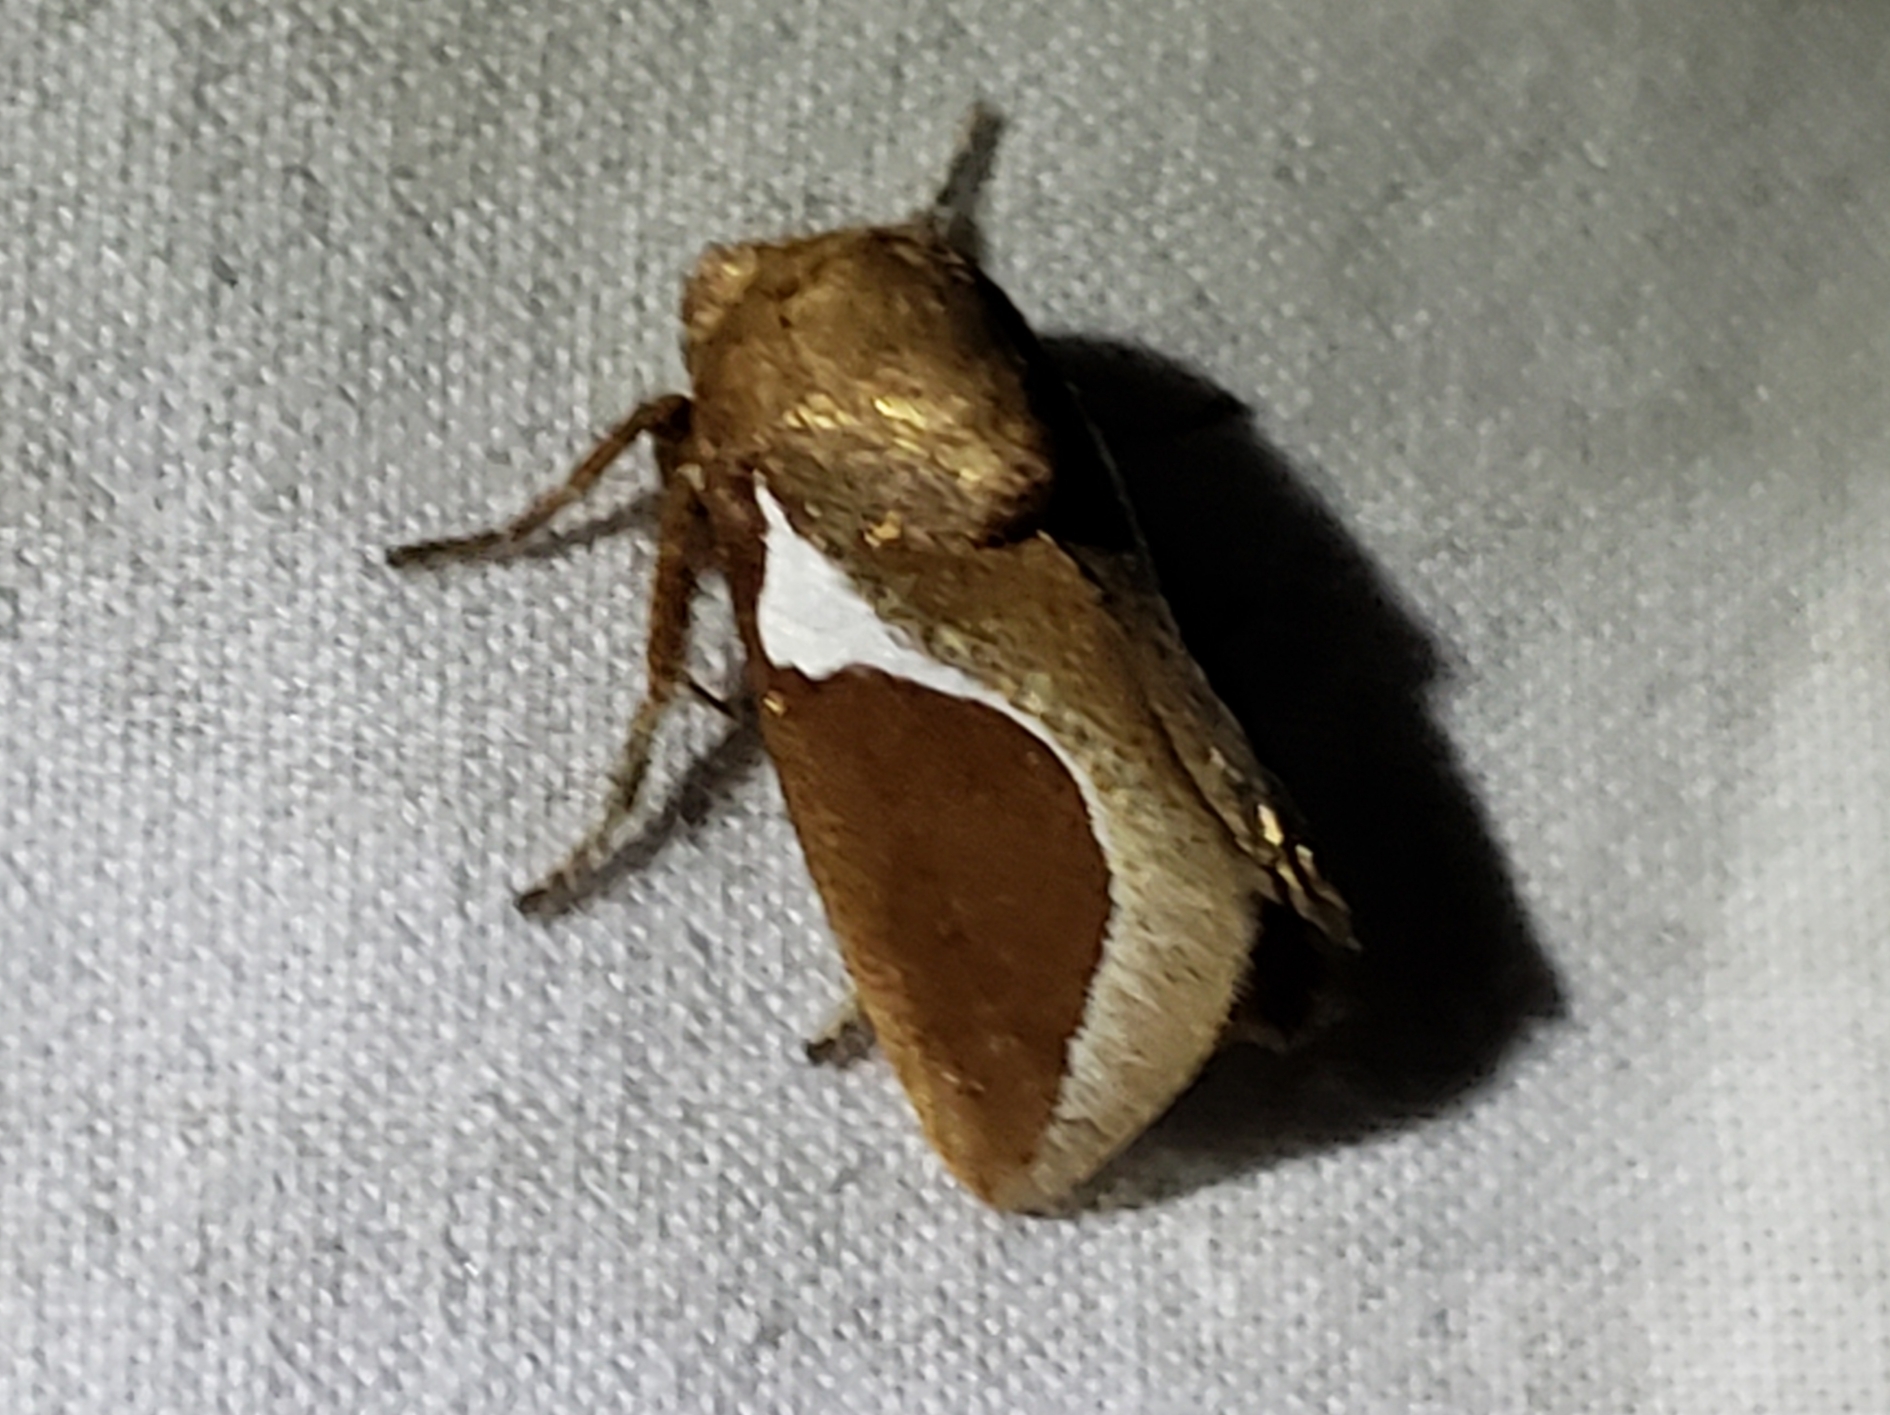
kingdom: Animalia
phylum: Arthropoda
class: Insecta
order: Lepidoptera
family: Limacodidae
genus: Prolimacodes
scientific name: Prolimacodes badia
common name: Skiff moth
